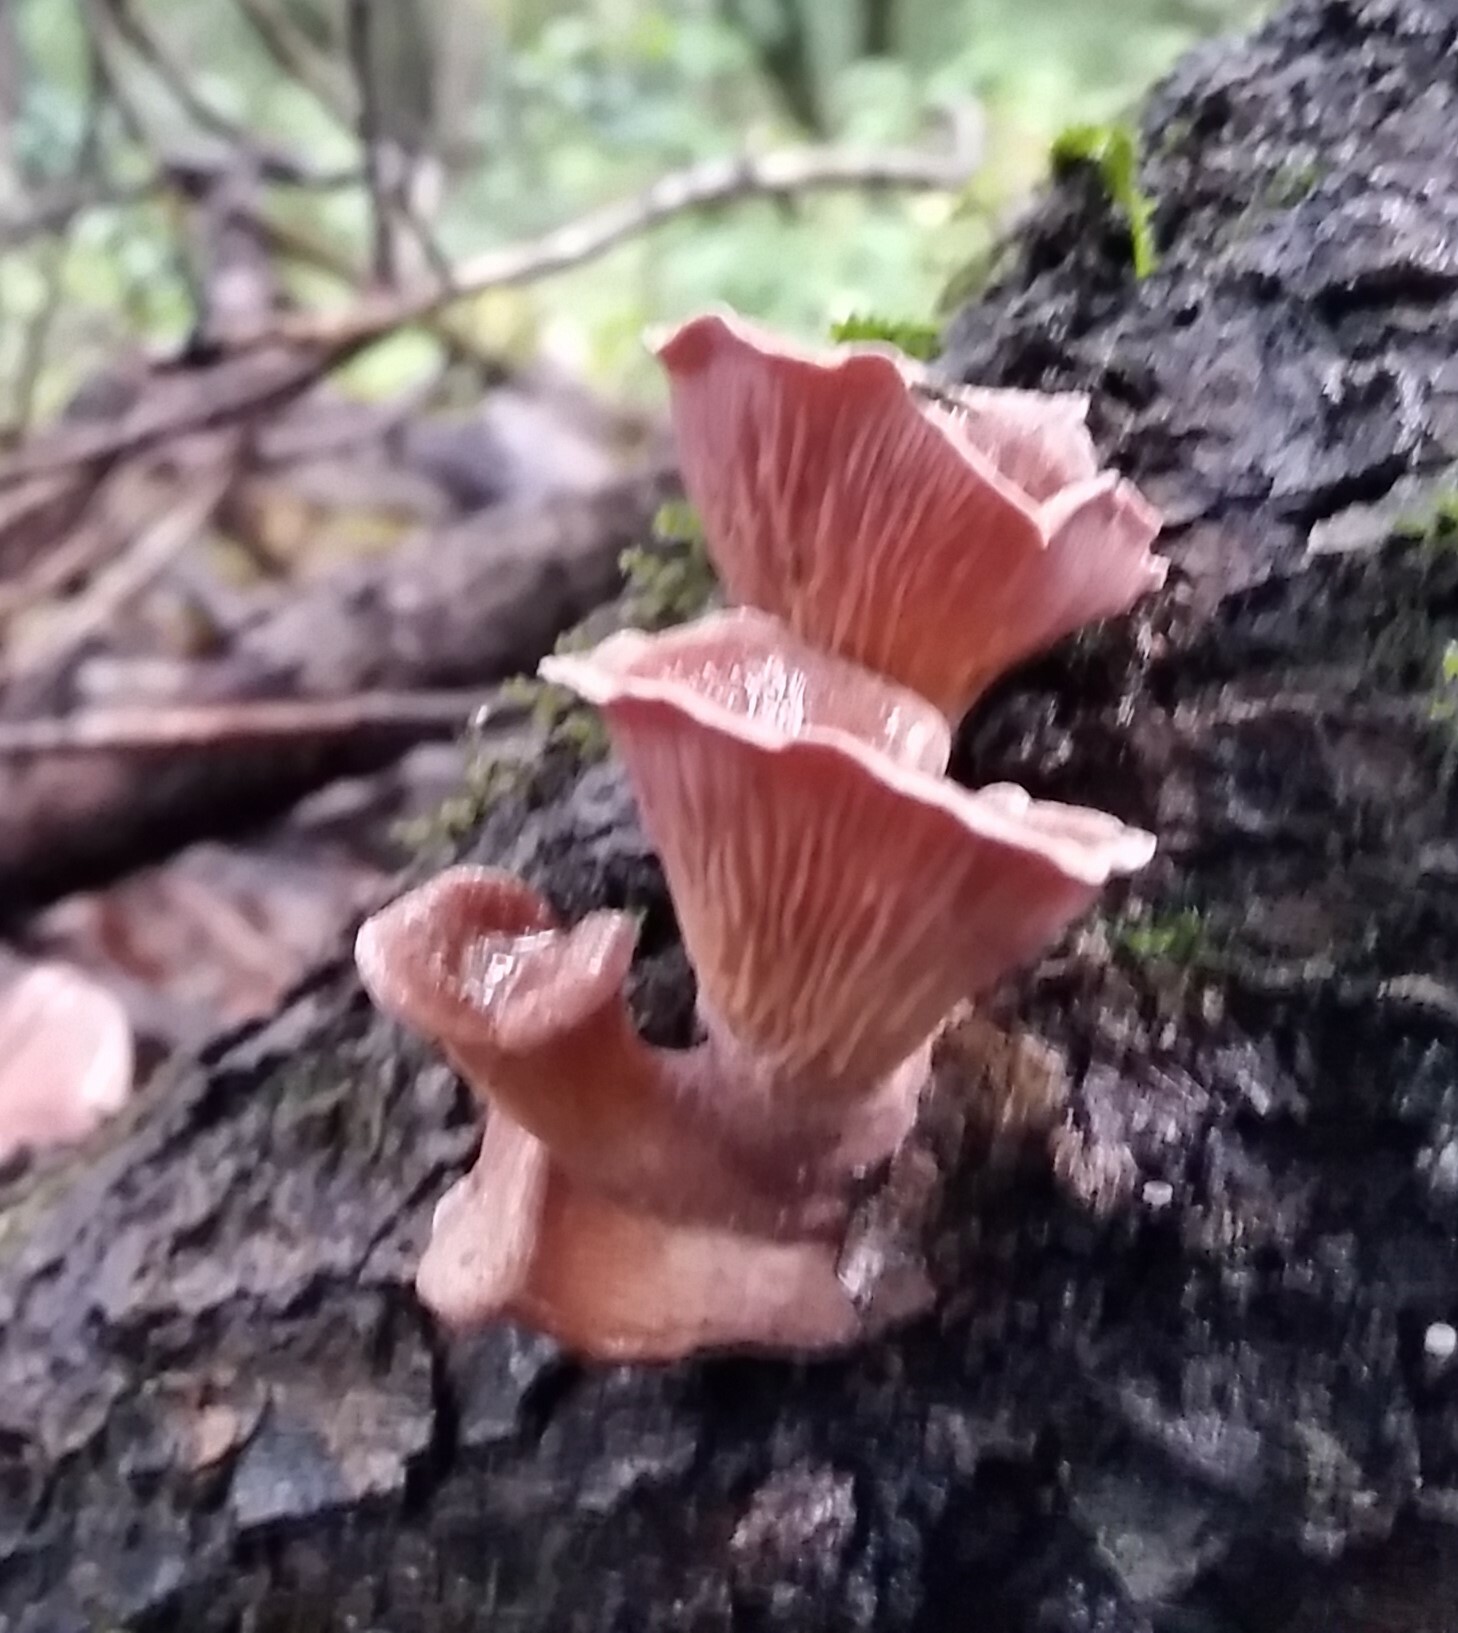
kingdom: Fungi
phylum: Basidiomycota
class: Agaricomycetes
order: Polyporales
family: Panaceae
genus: Panus
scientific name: Panus conchatus
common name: Lilac oysterling
